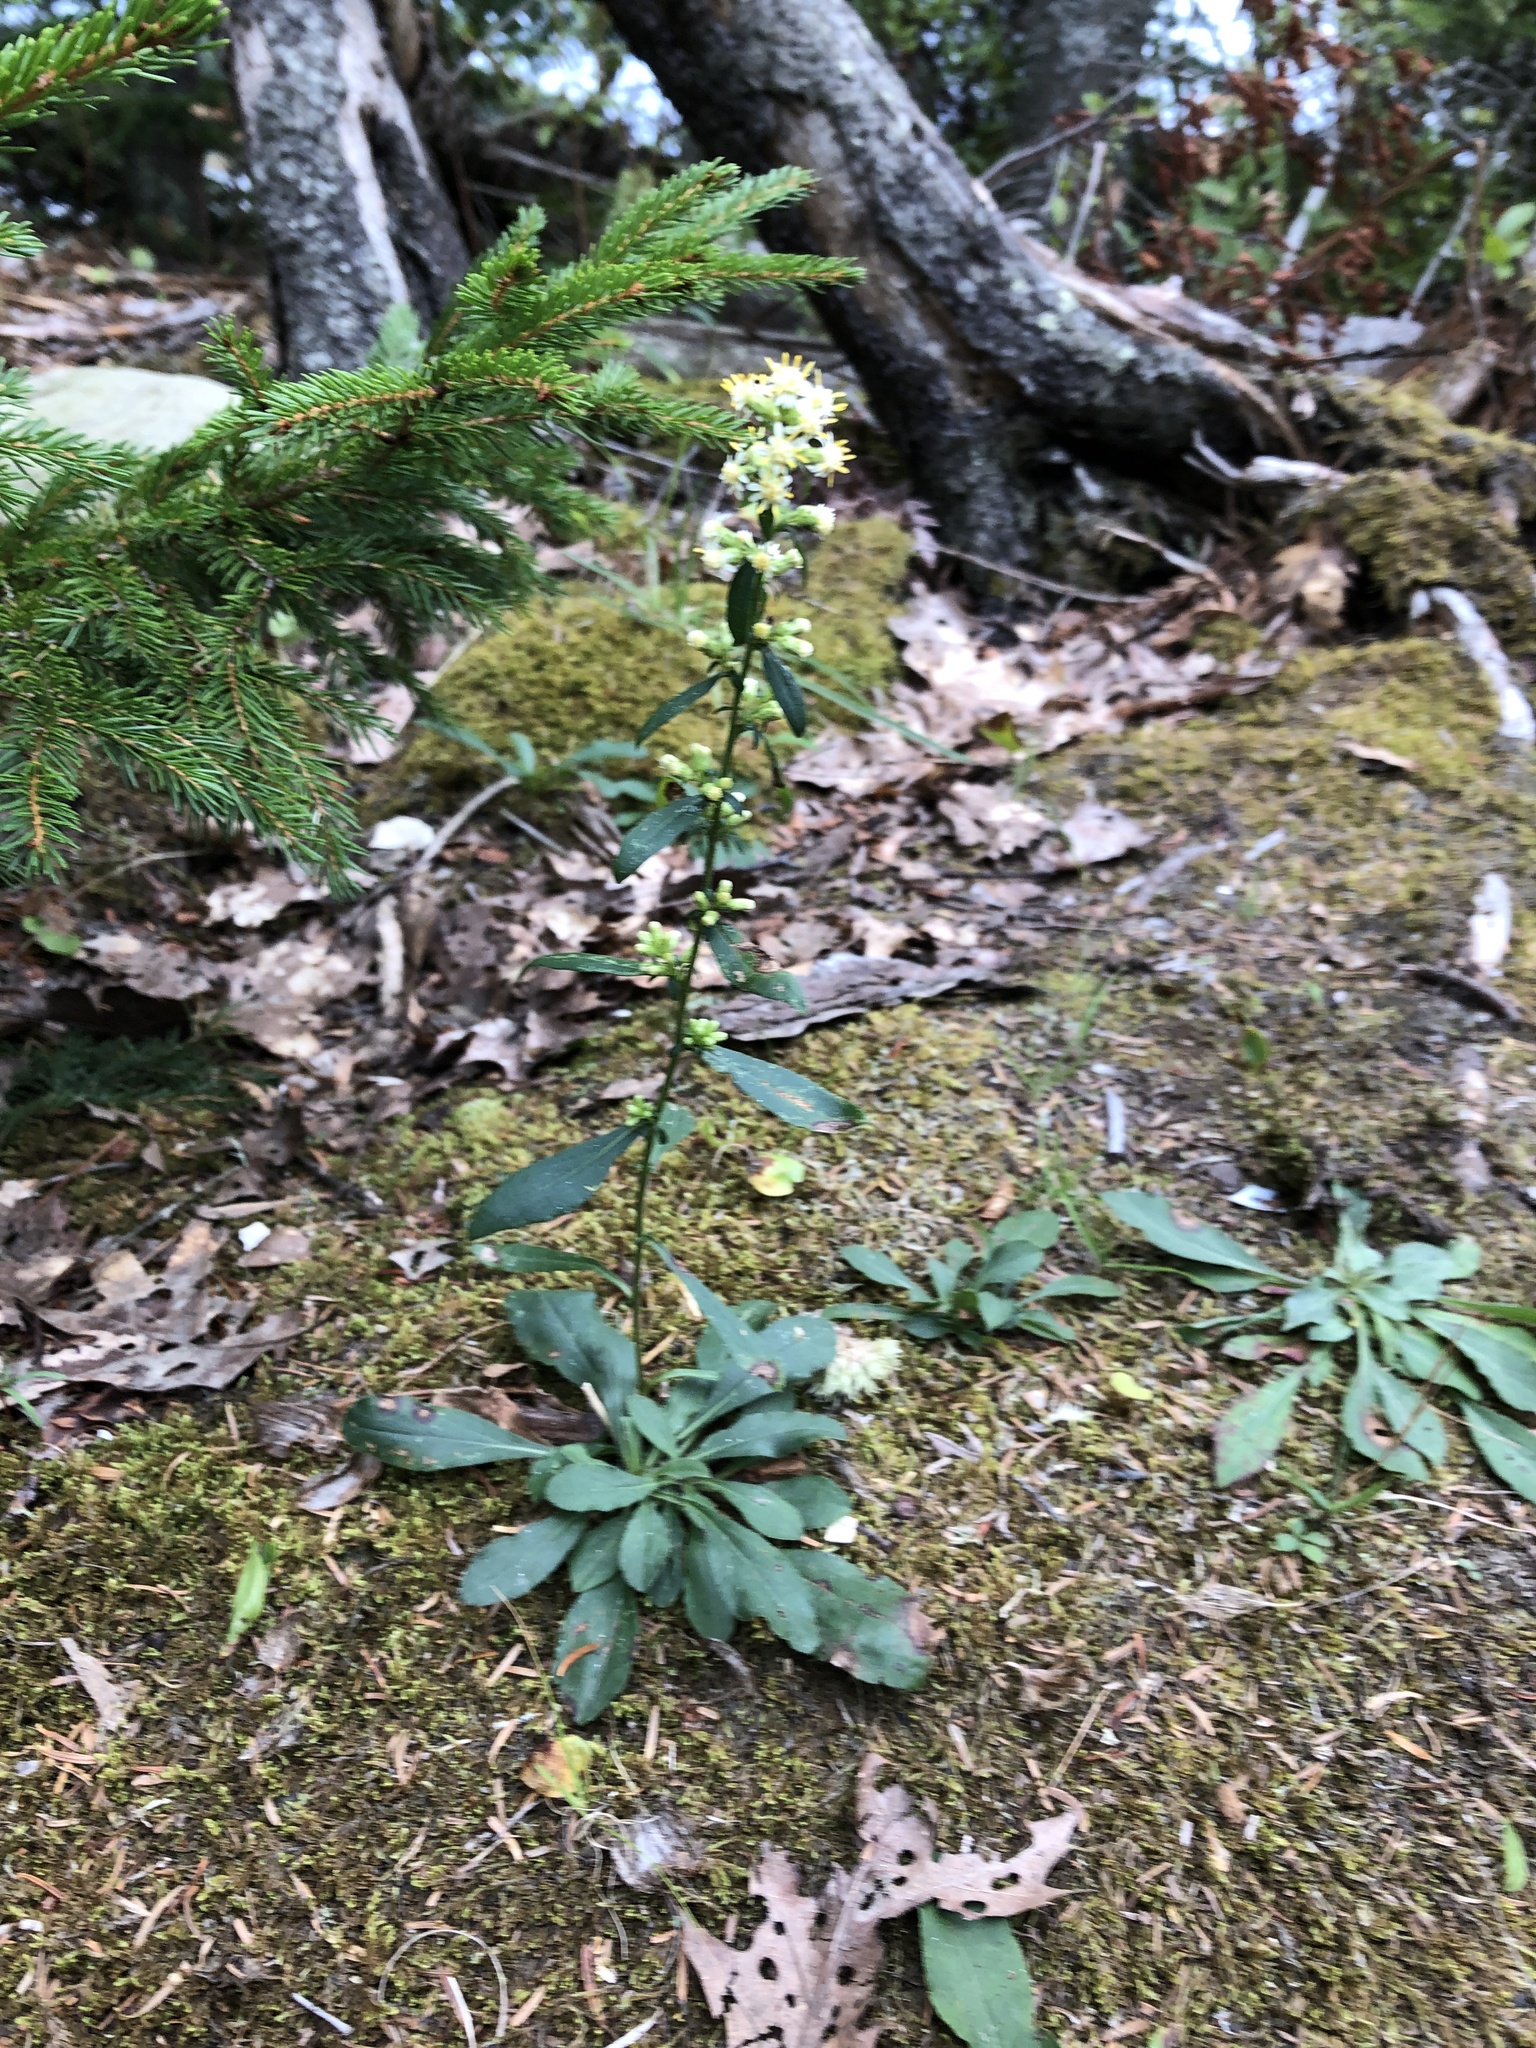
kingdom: Plantae
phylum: Tracheophyta
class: Magnoliopsida
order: Asterales
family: Asteraceae
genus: Solidago
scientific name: Solidago bicolor
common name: Silverrod
